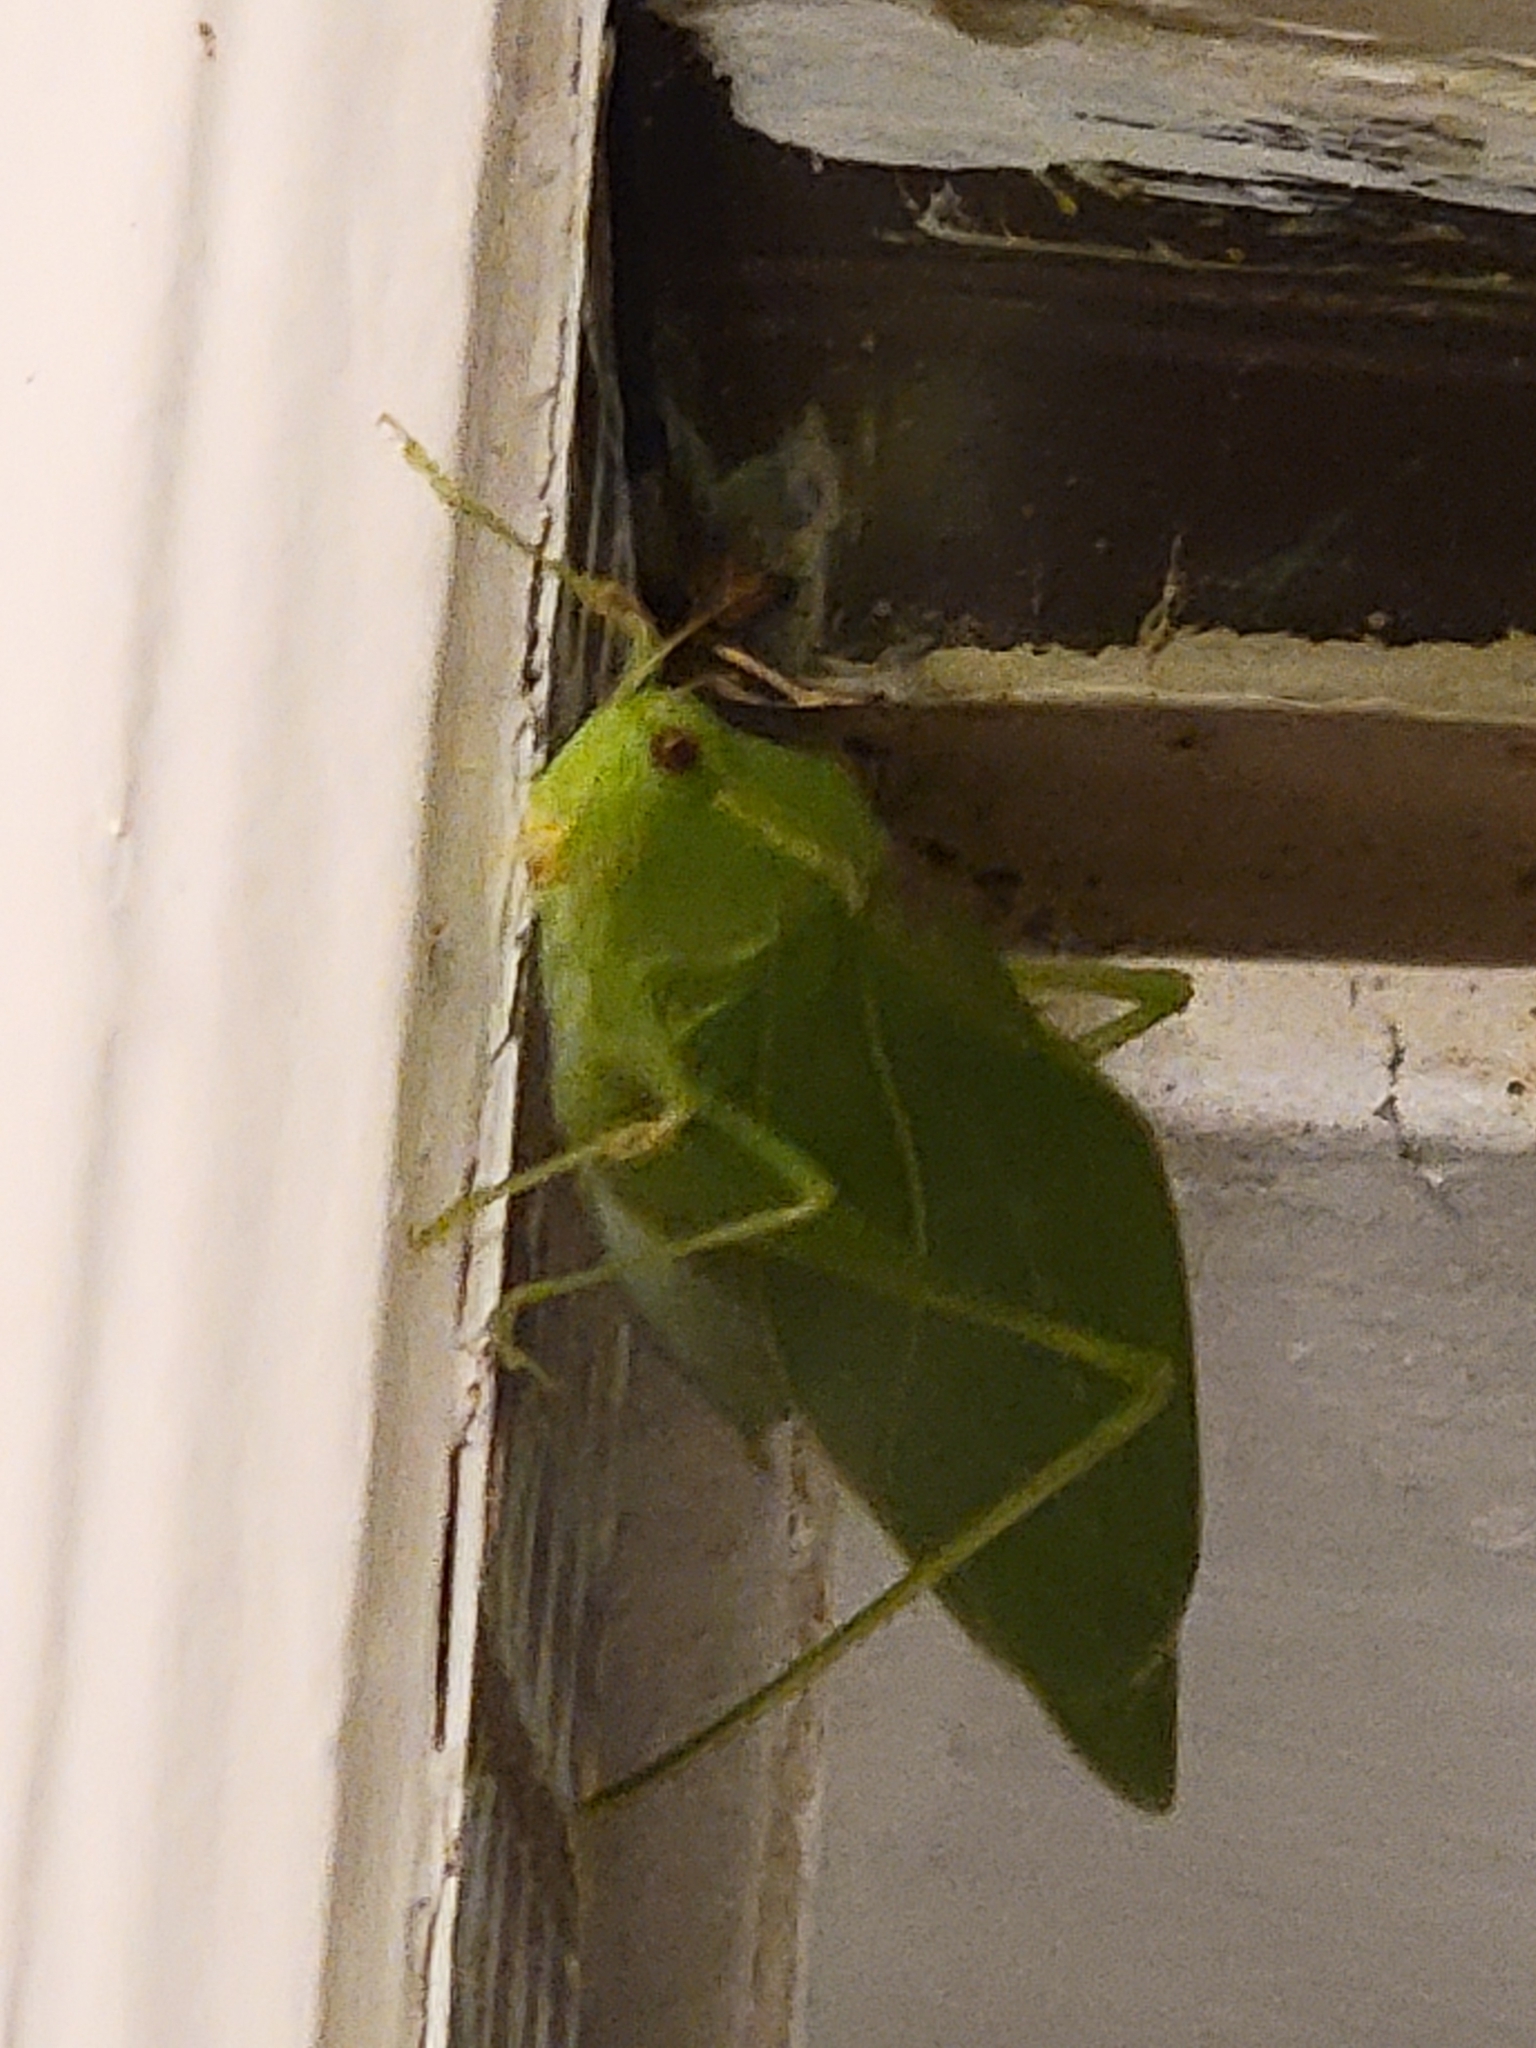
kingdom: Animalia
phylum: Arthropoda
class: Insecta
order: Orthoptera
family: Tettigoniidae
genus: Microcentrum
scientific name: Microcentrum retinerve
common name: Angular-winged katydid
